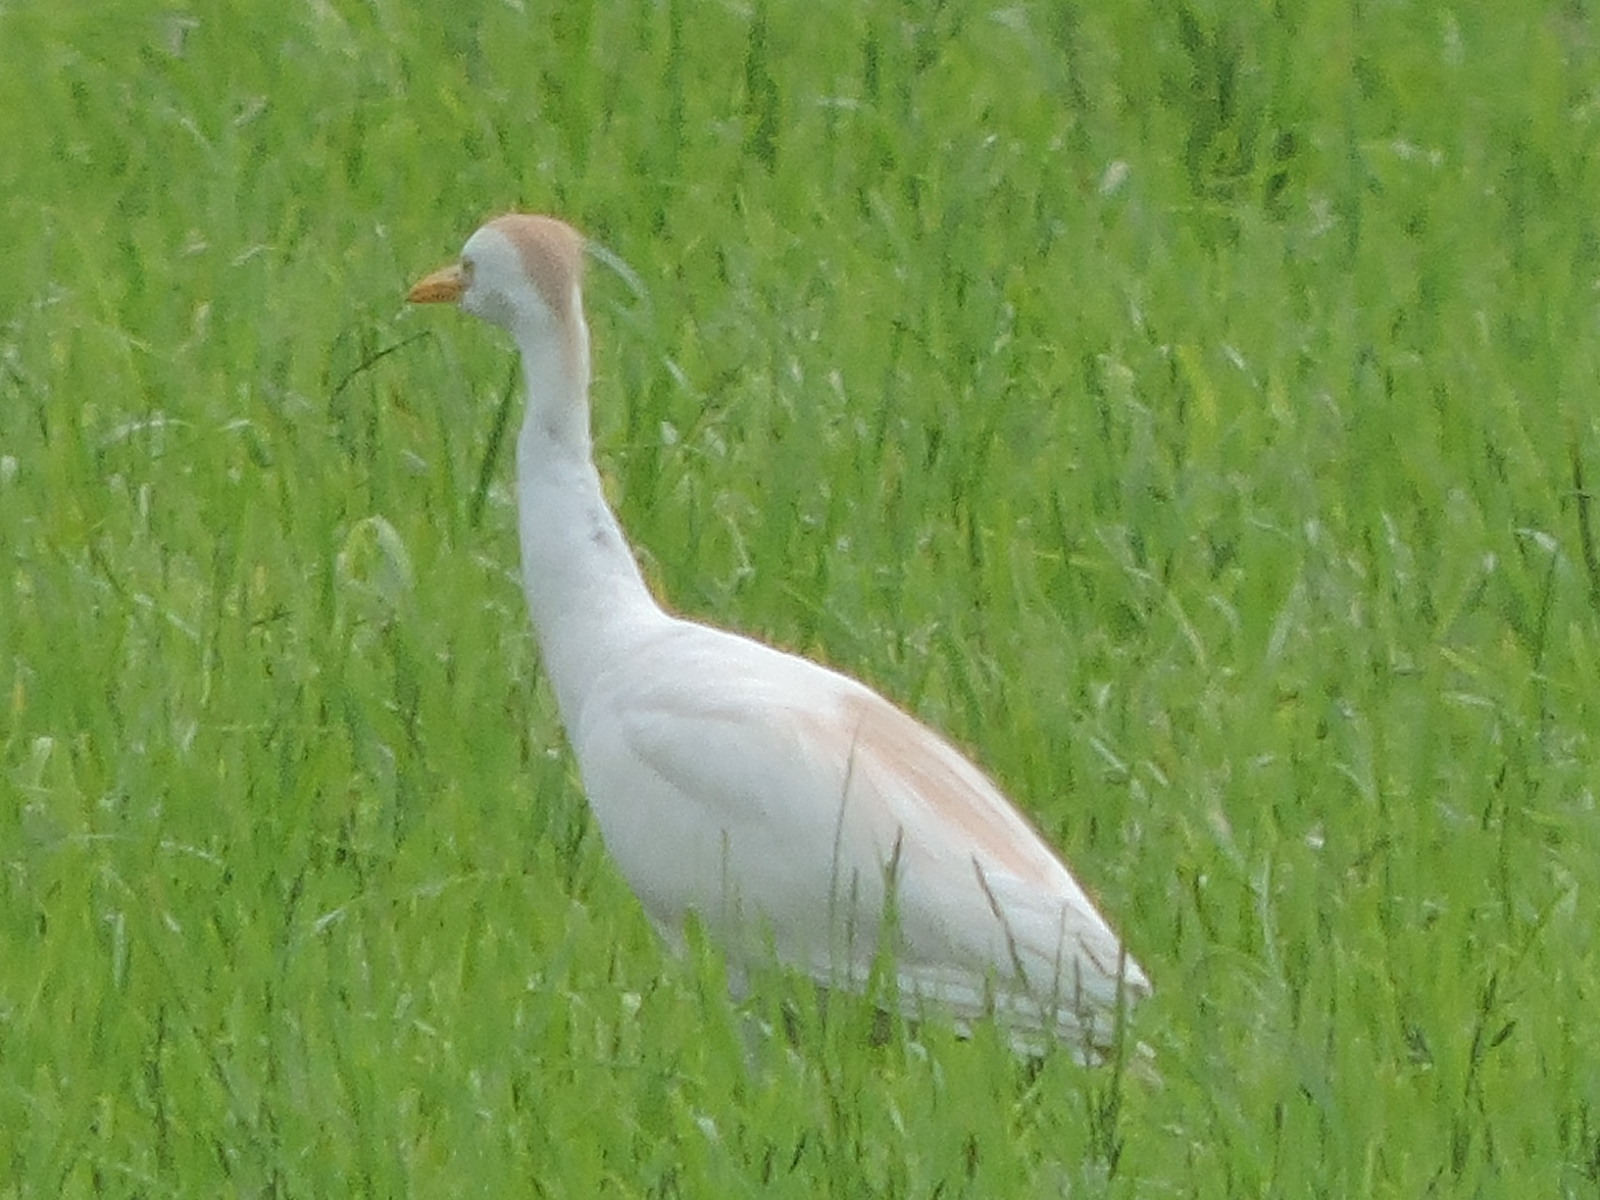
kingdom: Animalia
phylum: Chordata
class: Aves
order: Pelecaniformes
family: Ardeidae
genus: Bubulcus
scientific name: Bubulcus ibis
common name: Cattle egret
